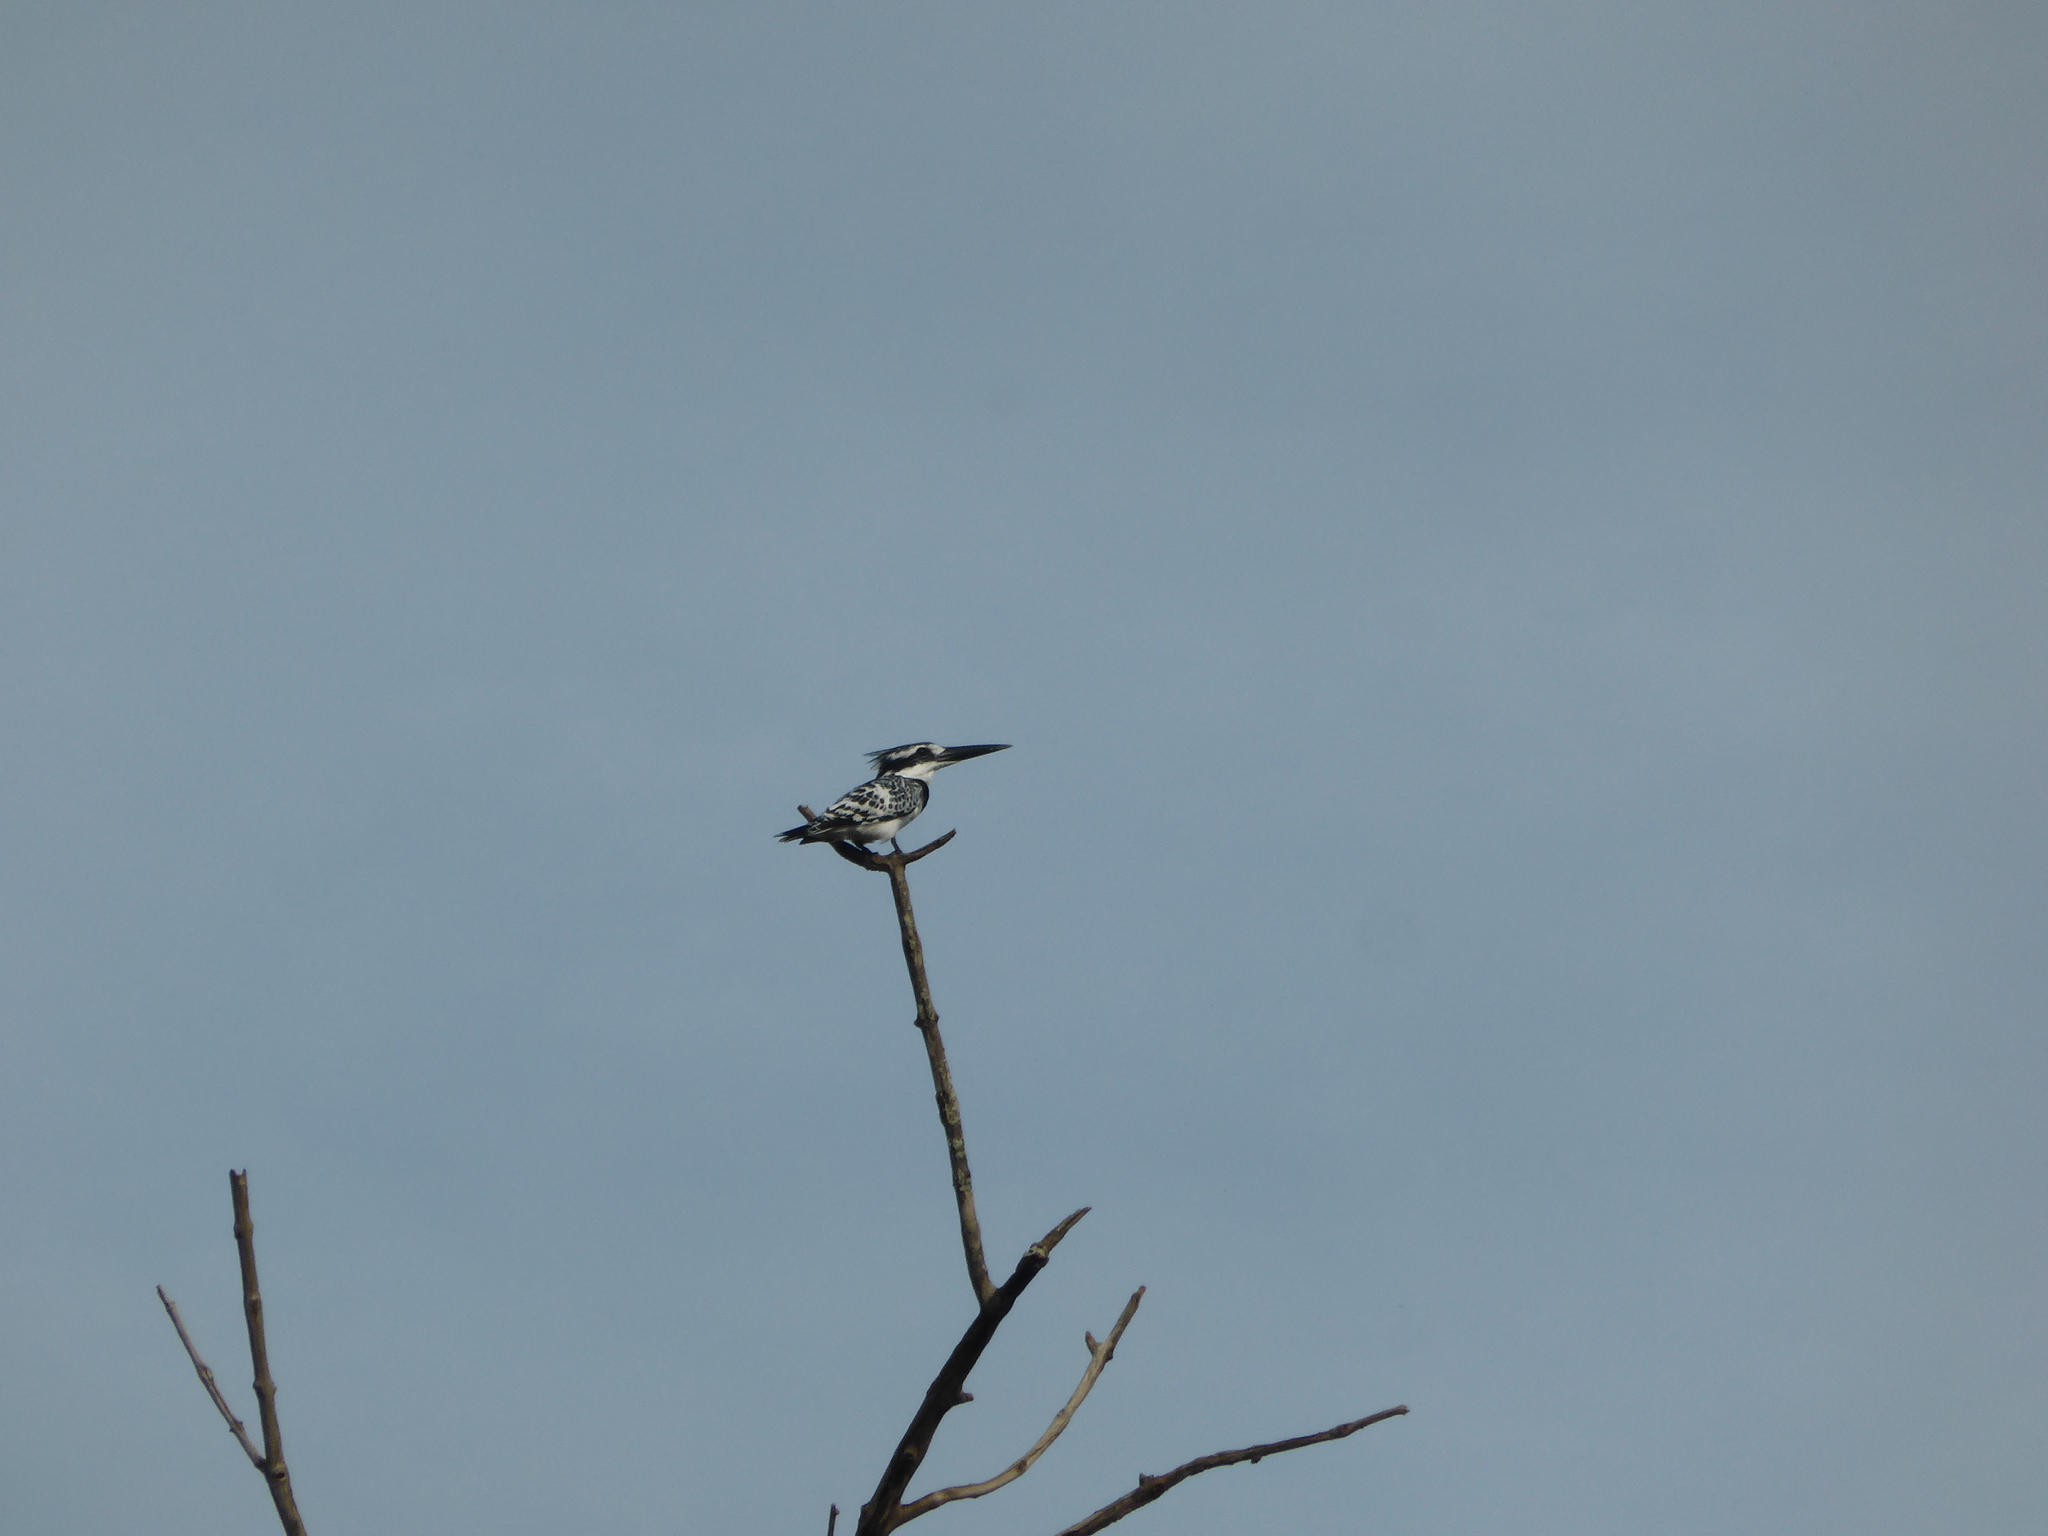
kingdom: Animalia
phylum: Chordata
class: Aves
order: Coraciiformes
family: Alcedinidae
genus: Ceryle
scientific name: Ceryle rudis
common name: Pied kingfisher
